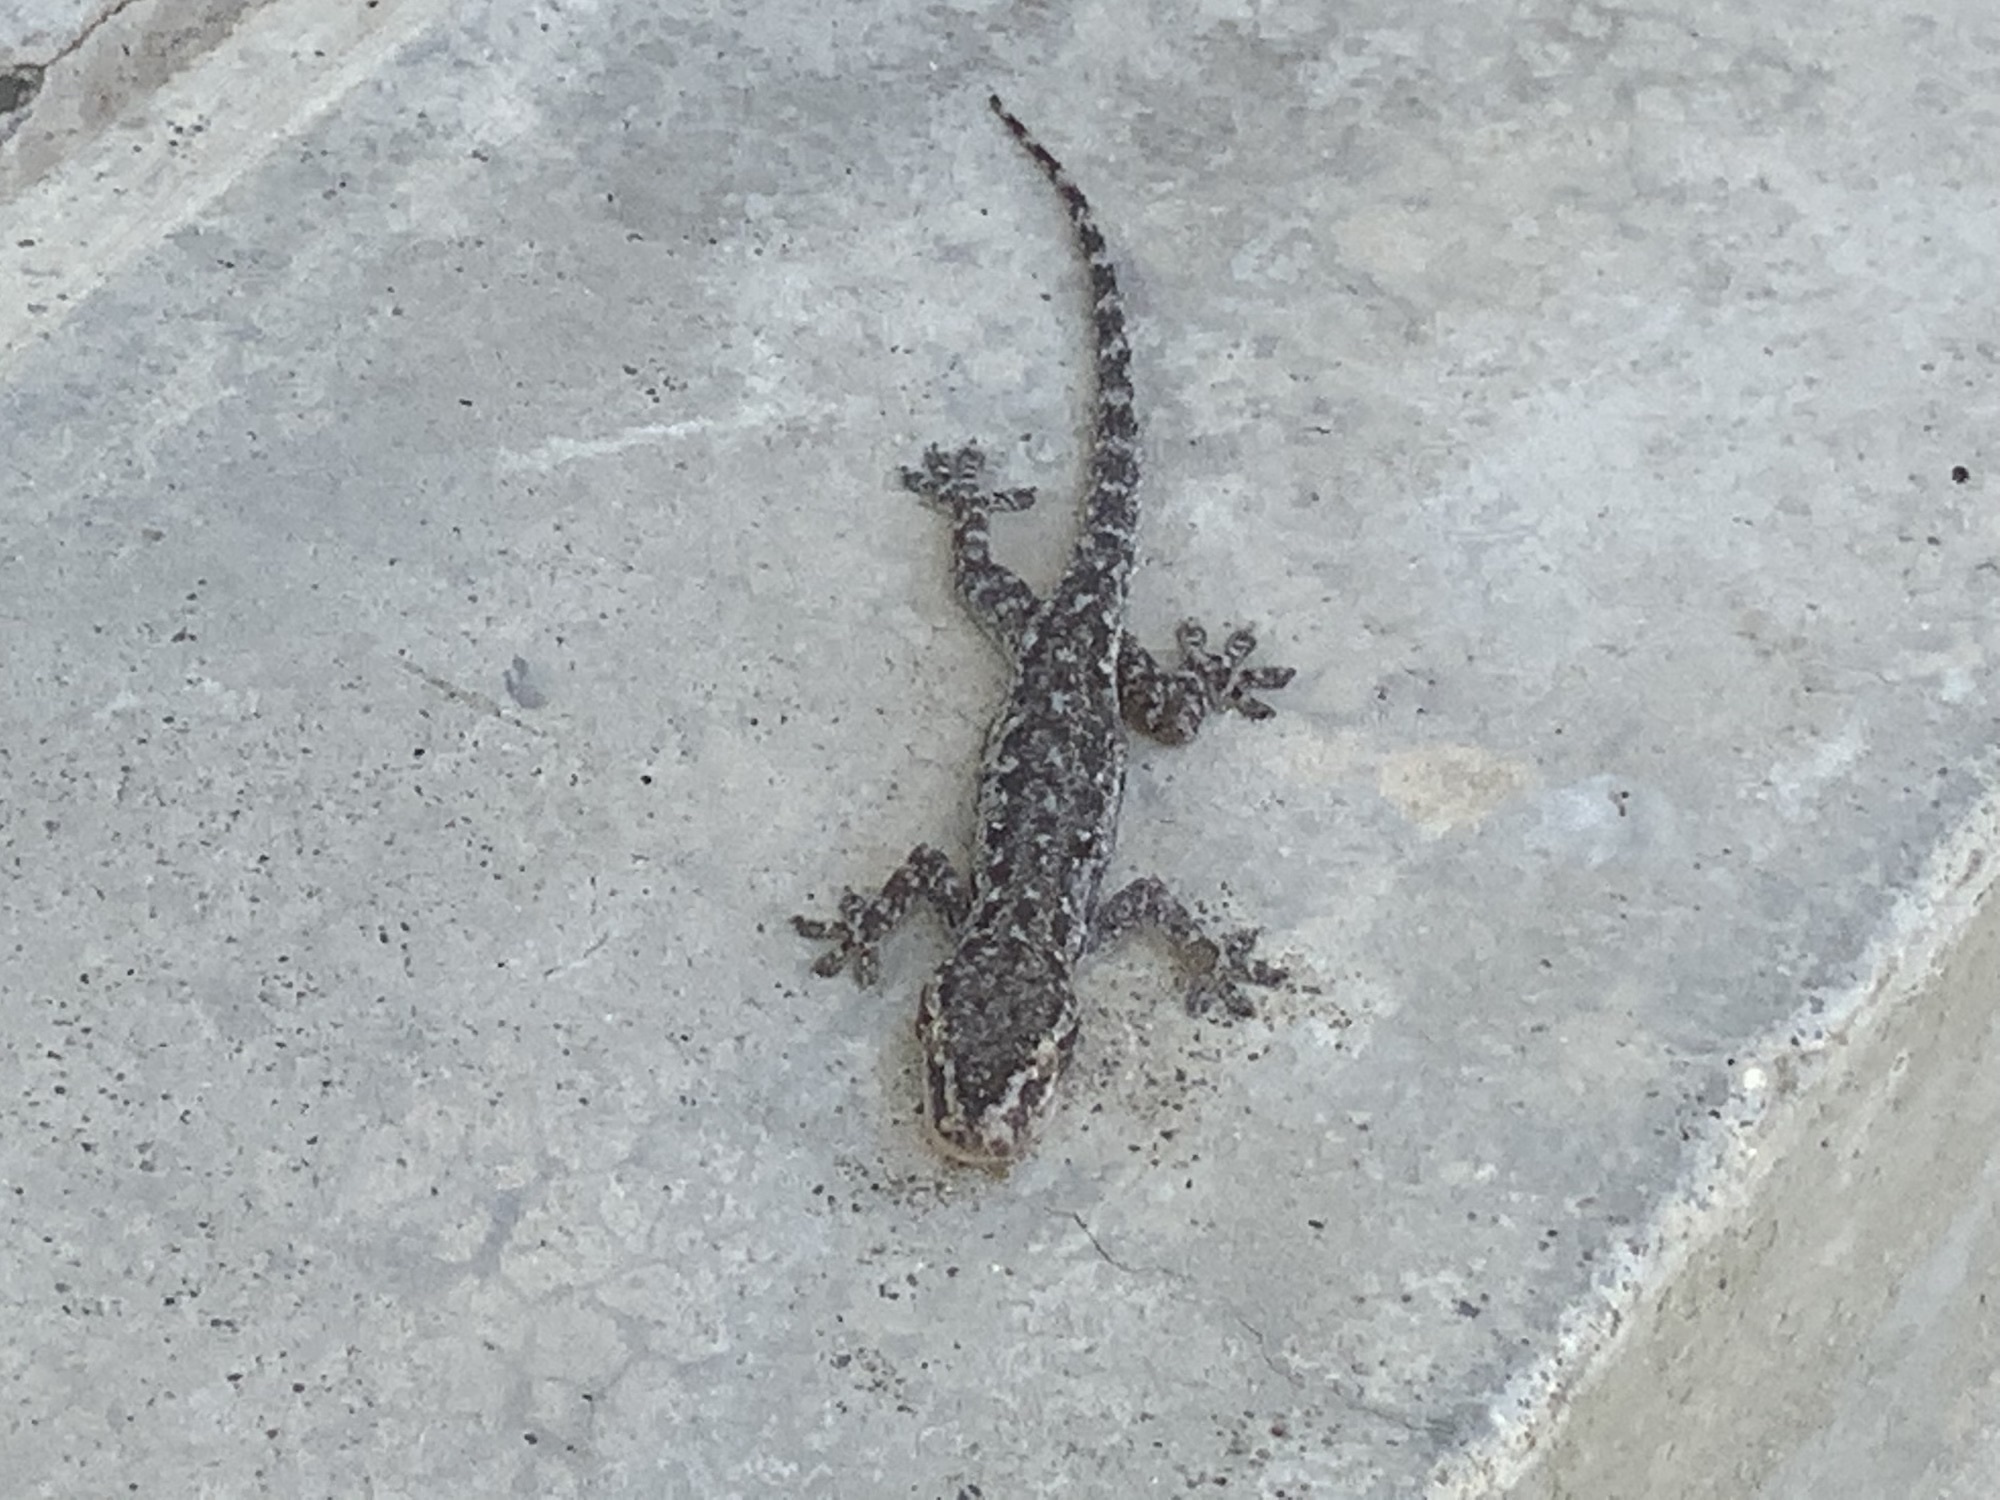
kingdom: Animalia
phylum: Chordata
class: Squamata
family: Gekkonidae
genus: Hemidactylus
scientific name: Hemidactylus frenatus
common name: Common house gecko
